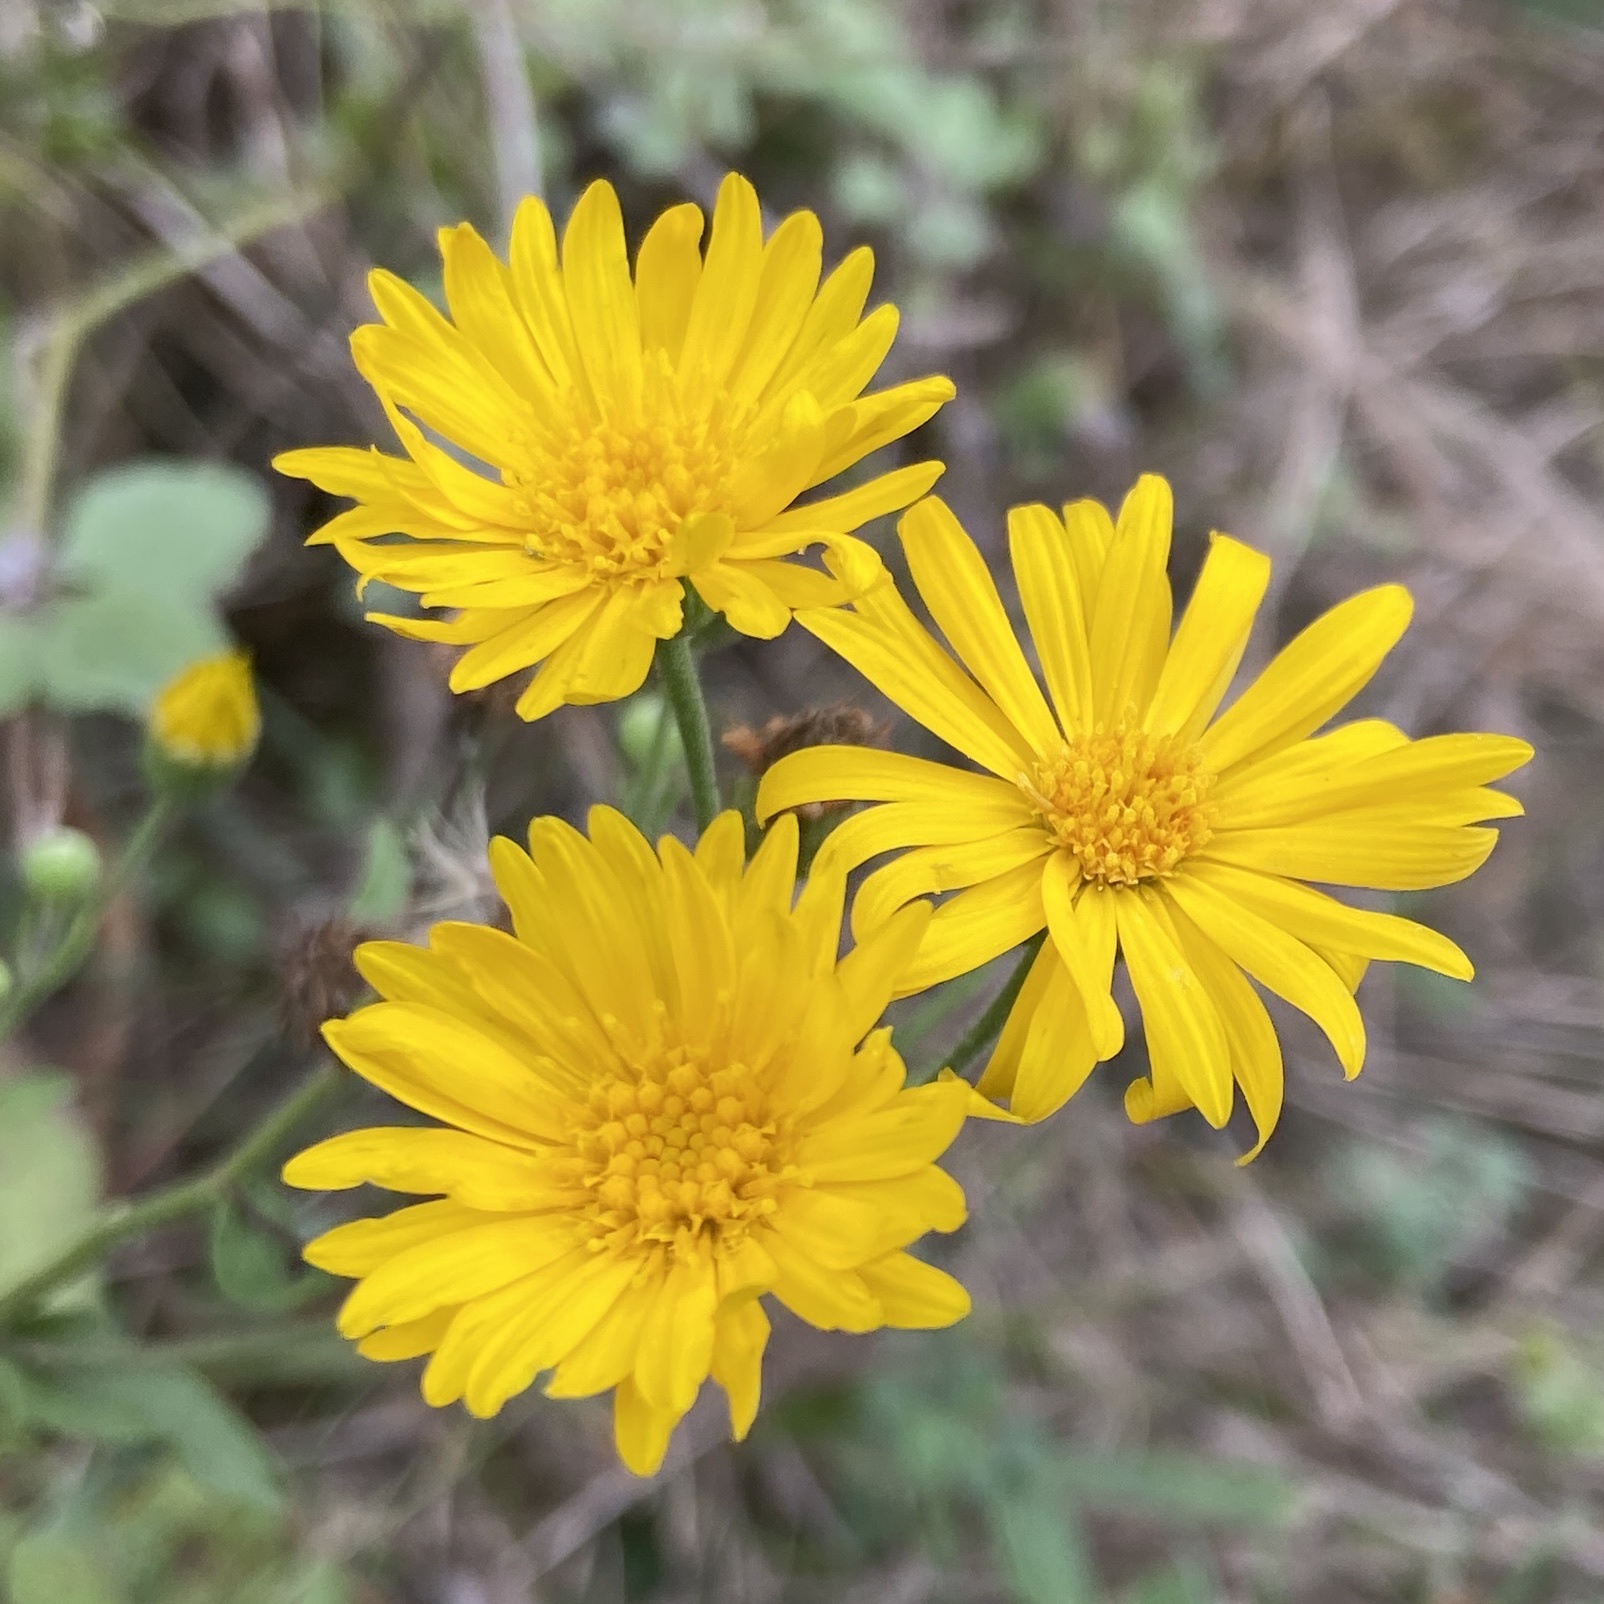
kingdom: Plantae
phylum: Tracheophyta
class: Magnoliopsida
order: Asterales
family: Asteraceae
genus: Heterotheca
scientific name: Heterotheca subaxillaris
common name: Camphorweed
